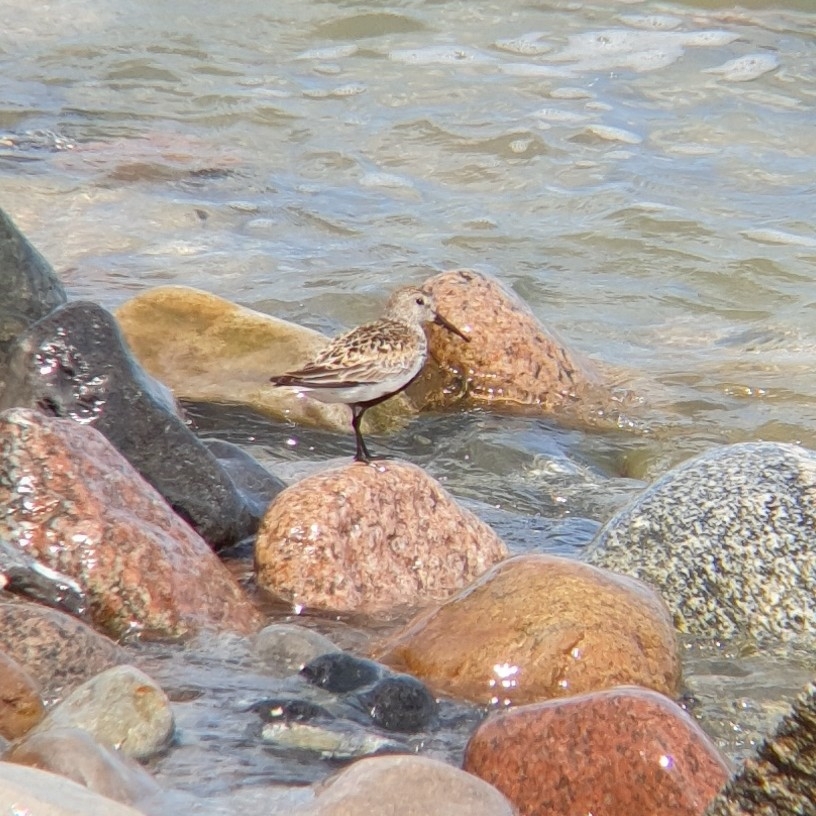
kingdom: Animalia
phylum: Chordata
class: Aves
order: Charadriiformes
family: Scolopacidae
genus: Calidris
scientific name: Calidris alpina
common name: Dunlin
